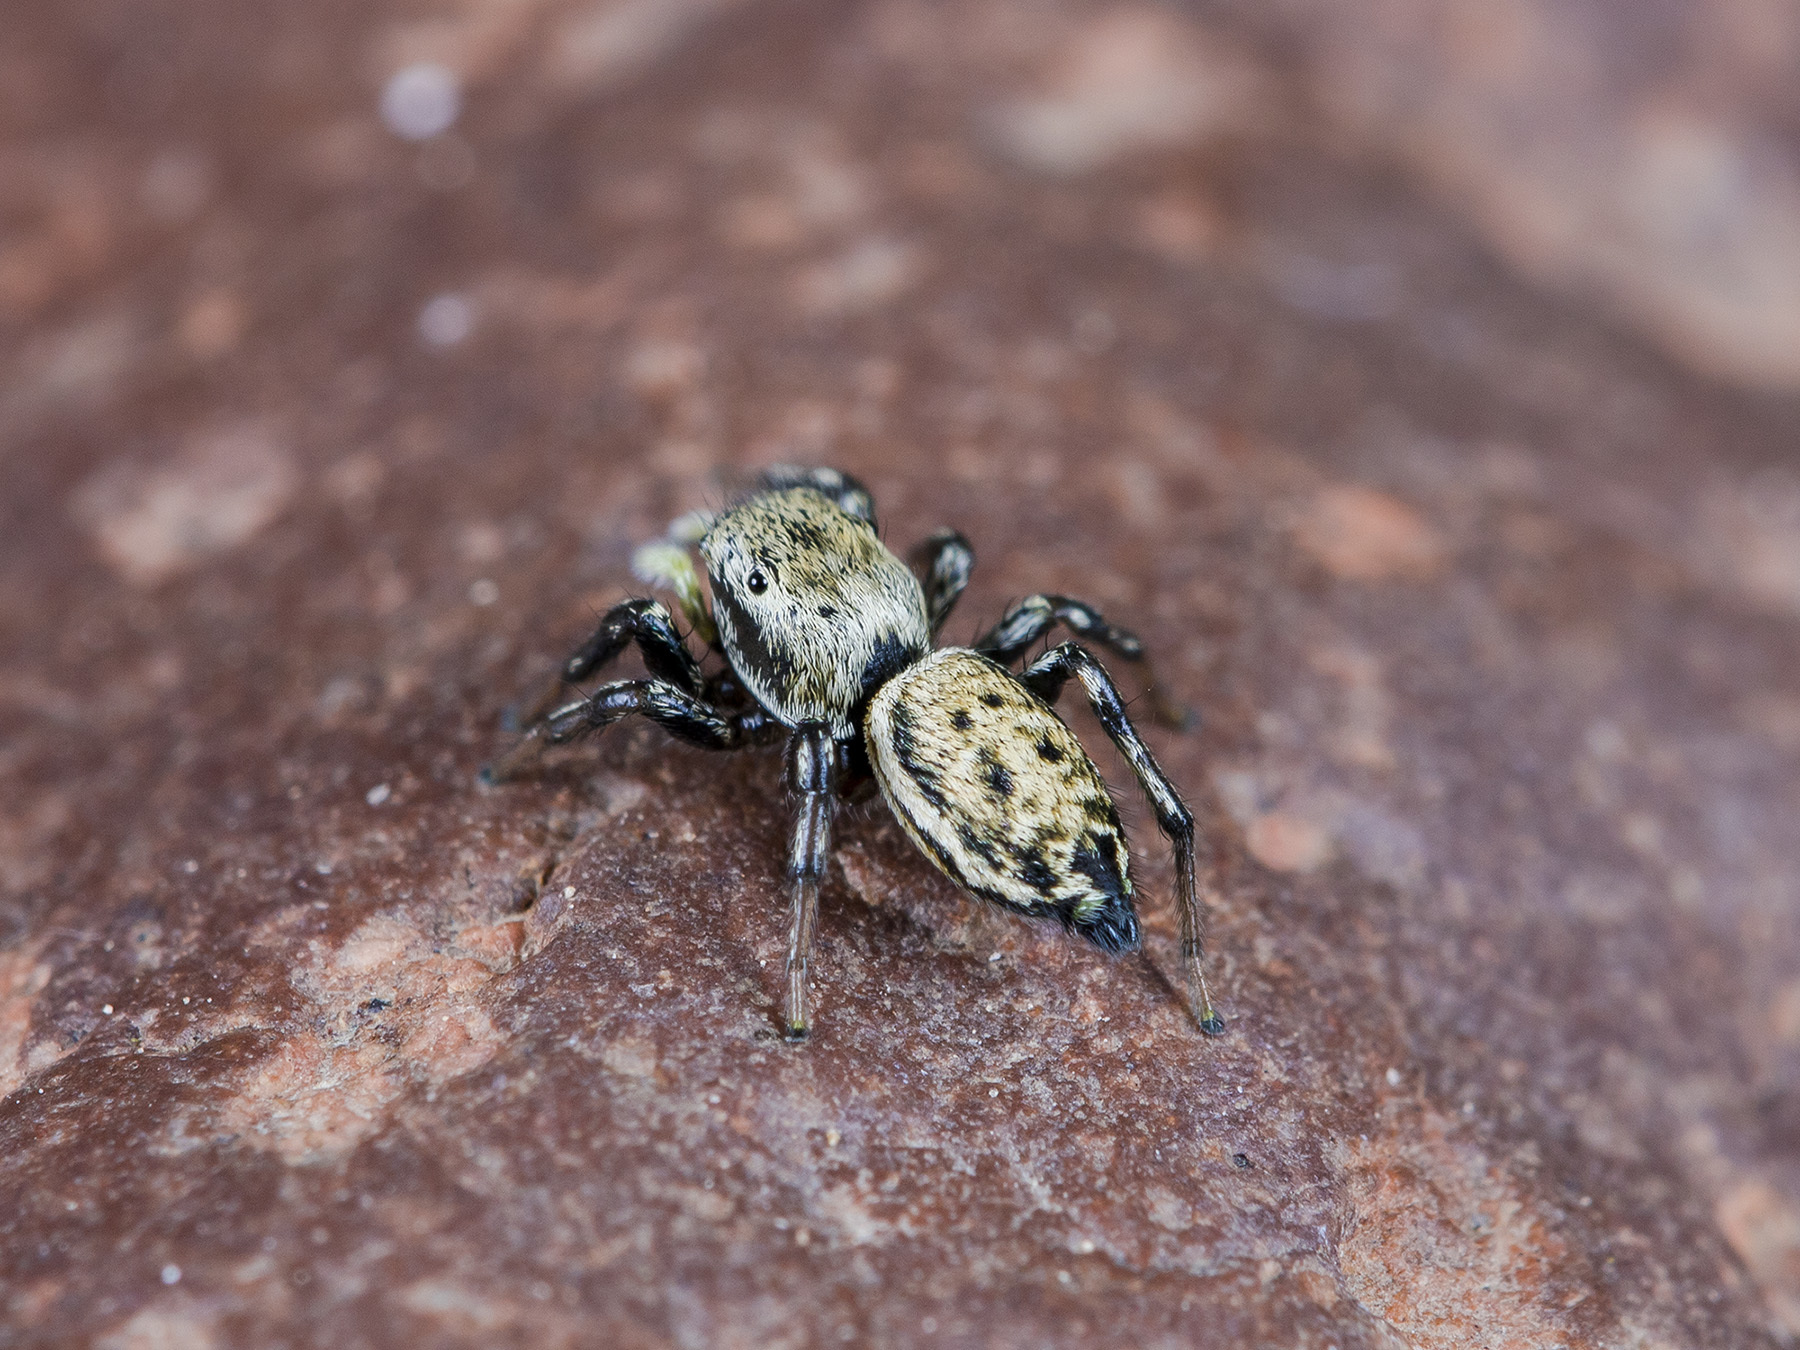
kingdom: Animalia
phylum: Arthropoda
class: Arachnida
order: Araneae
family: Salticidae
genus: Heliophanus
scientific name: Heliophanus potanini
